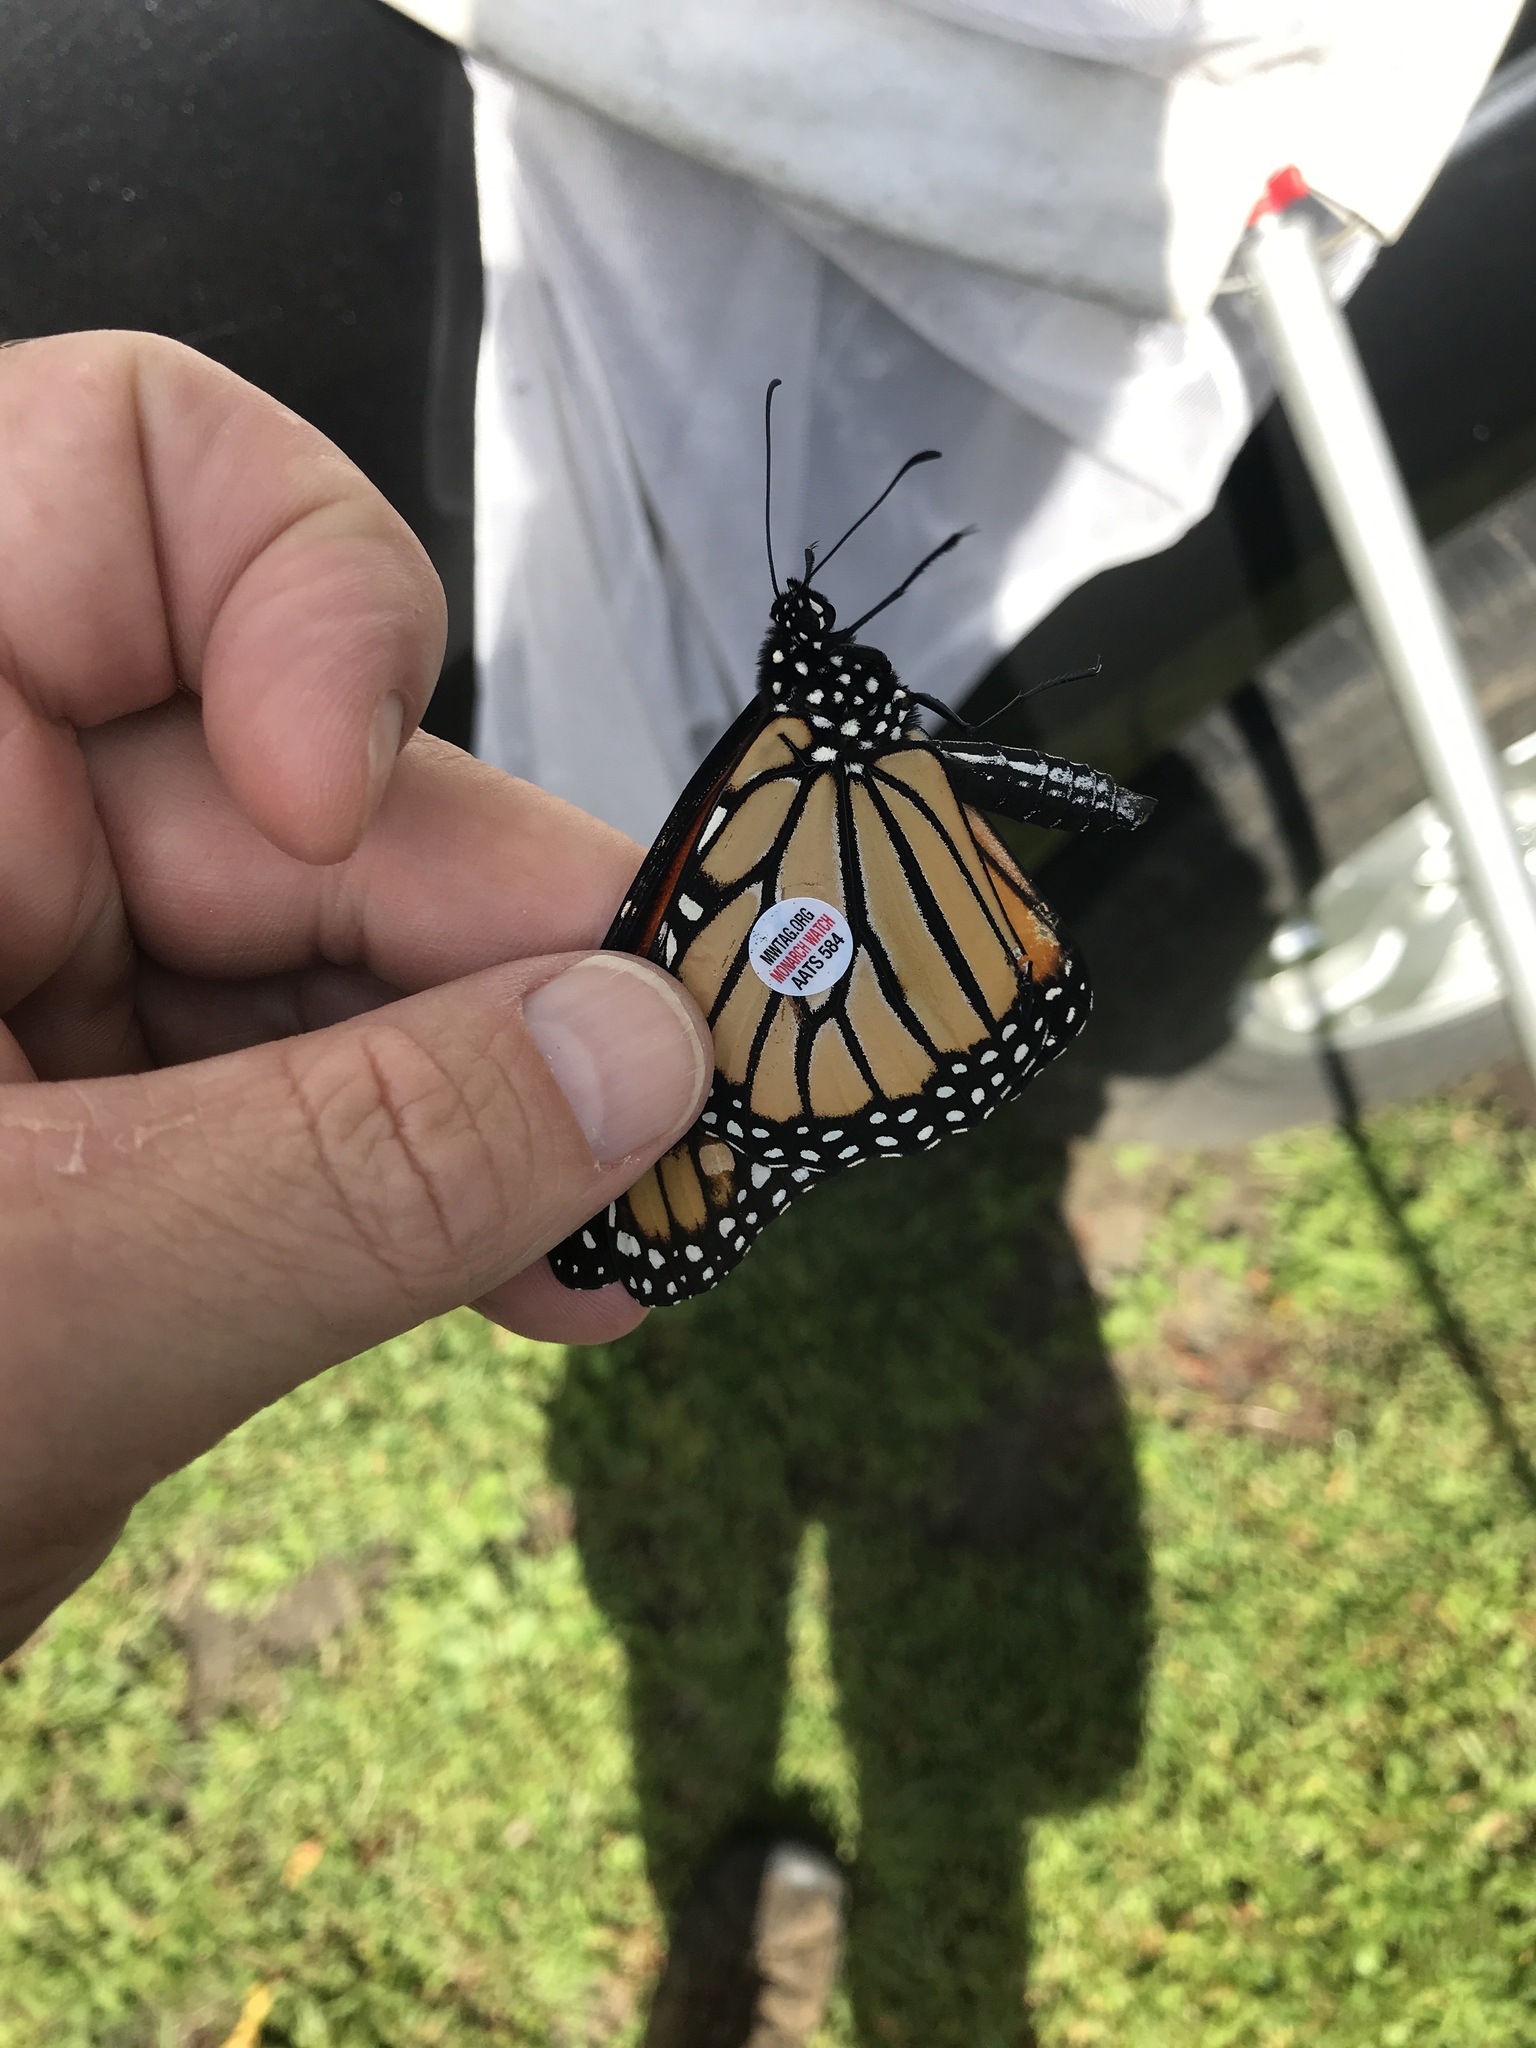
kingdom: Animalia
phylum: Arthropoda
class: Insecta
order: Lepidoptera
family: Nymphalidae
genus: Danaus
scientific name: Danaus plexippus
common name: Monarch
